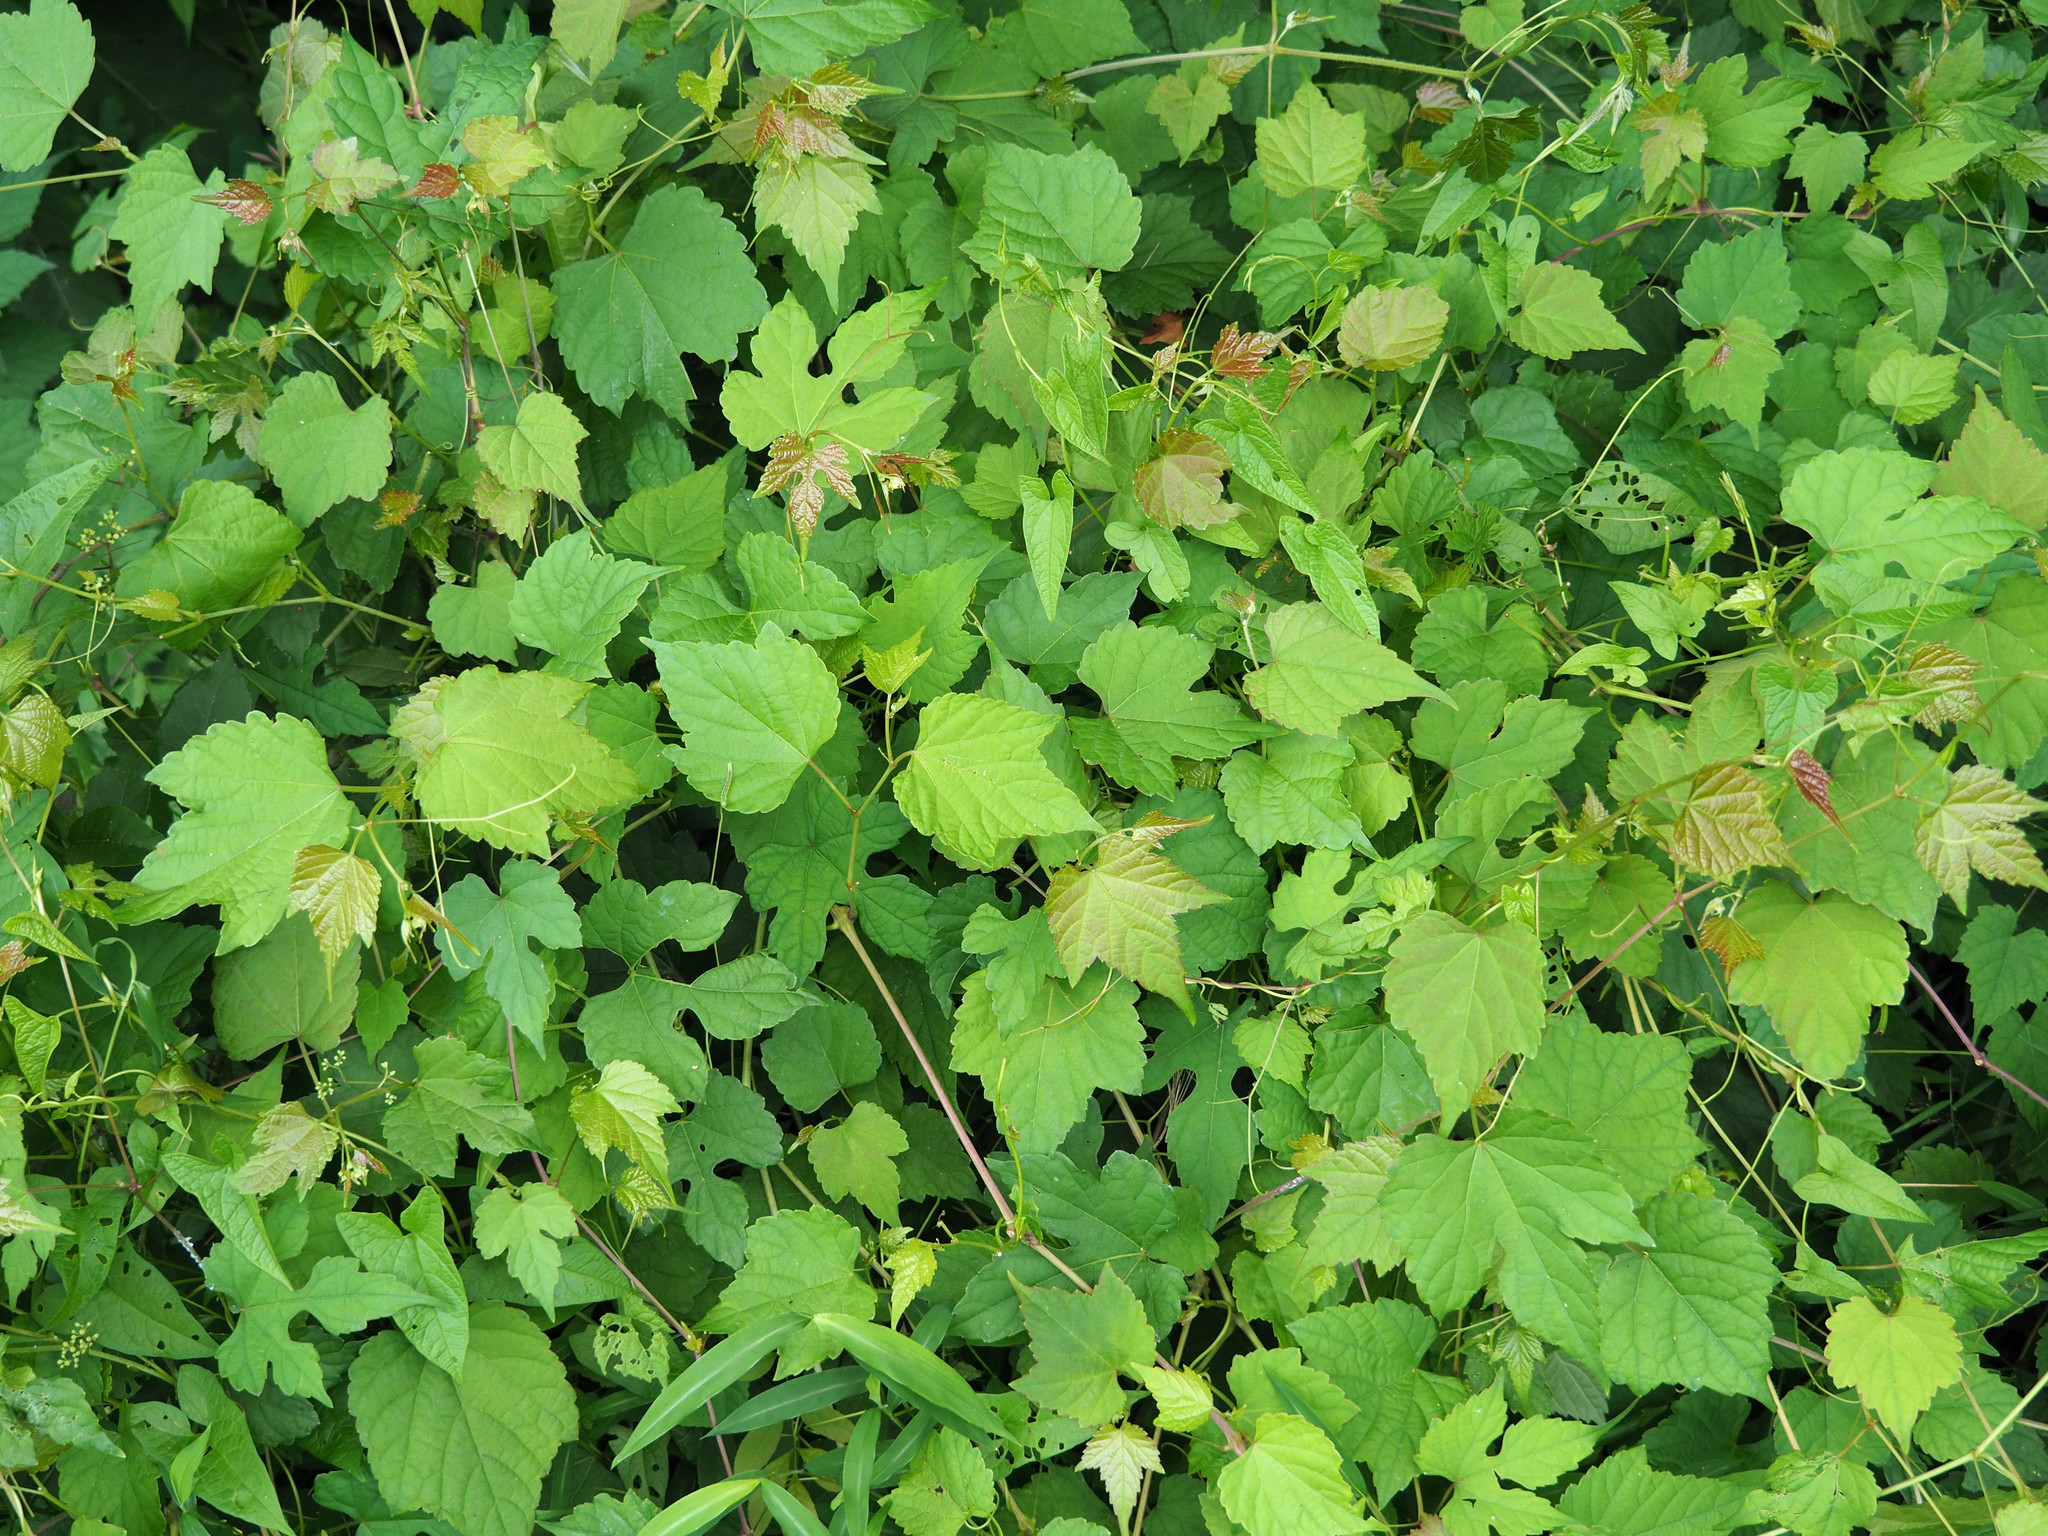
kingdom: Plantae
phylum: Tracheophyta
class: Magnoliopsida
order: Vitales
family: Vitaceae
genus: Ampelopsis
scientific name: Ampelopsis glandulosa
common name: Amur peppervine
